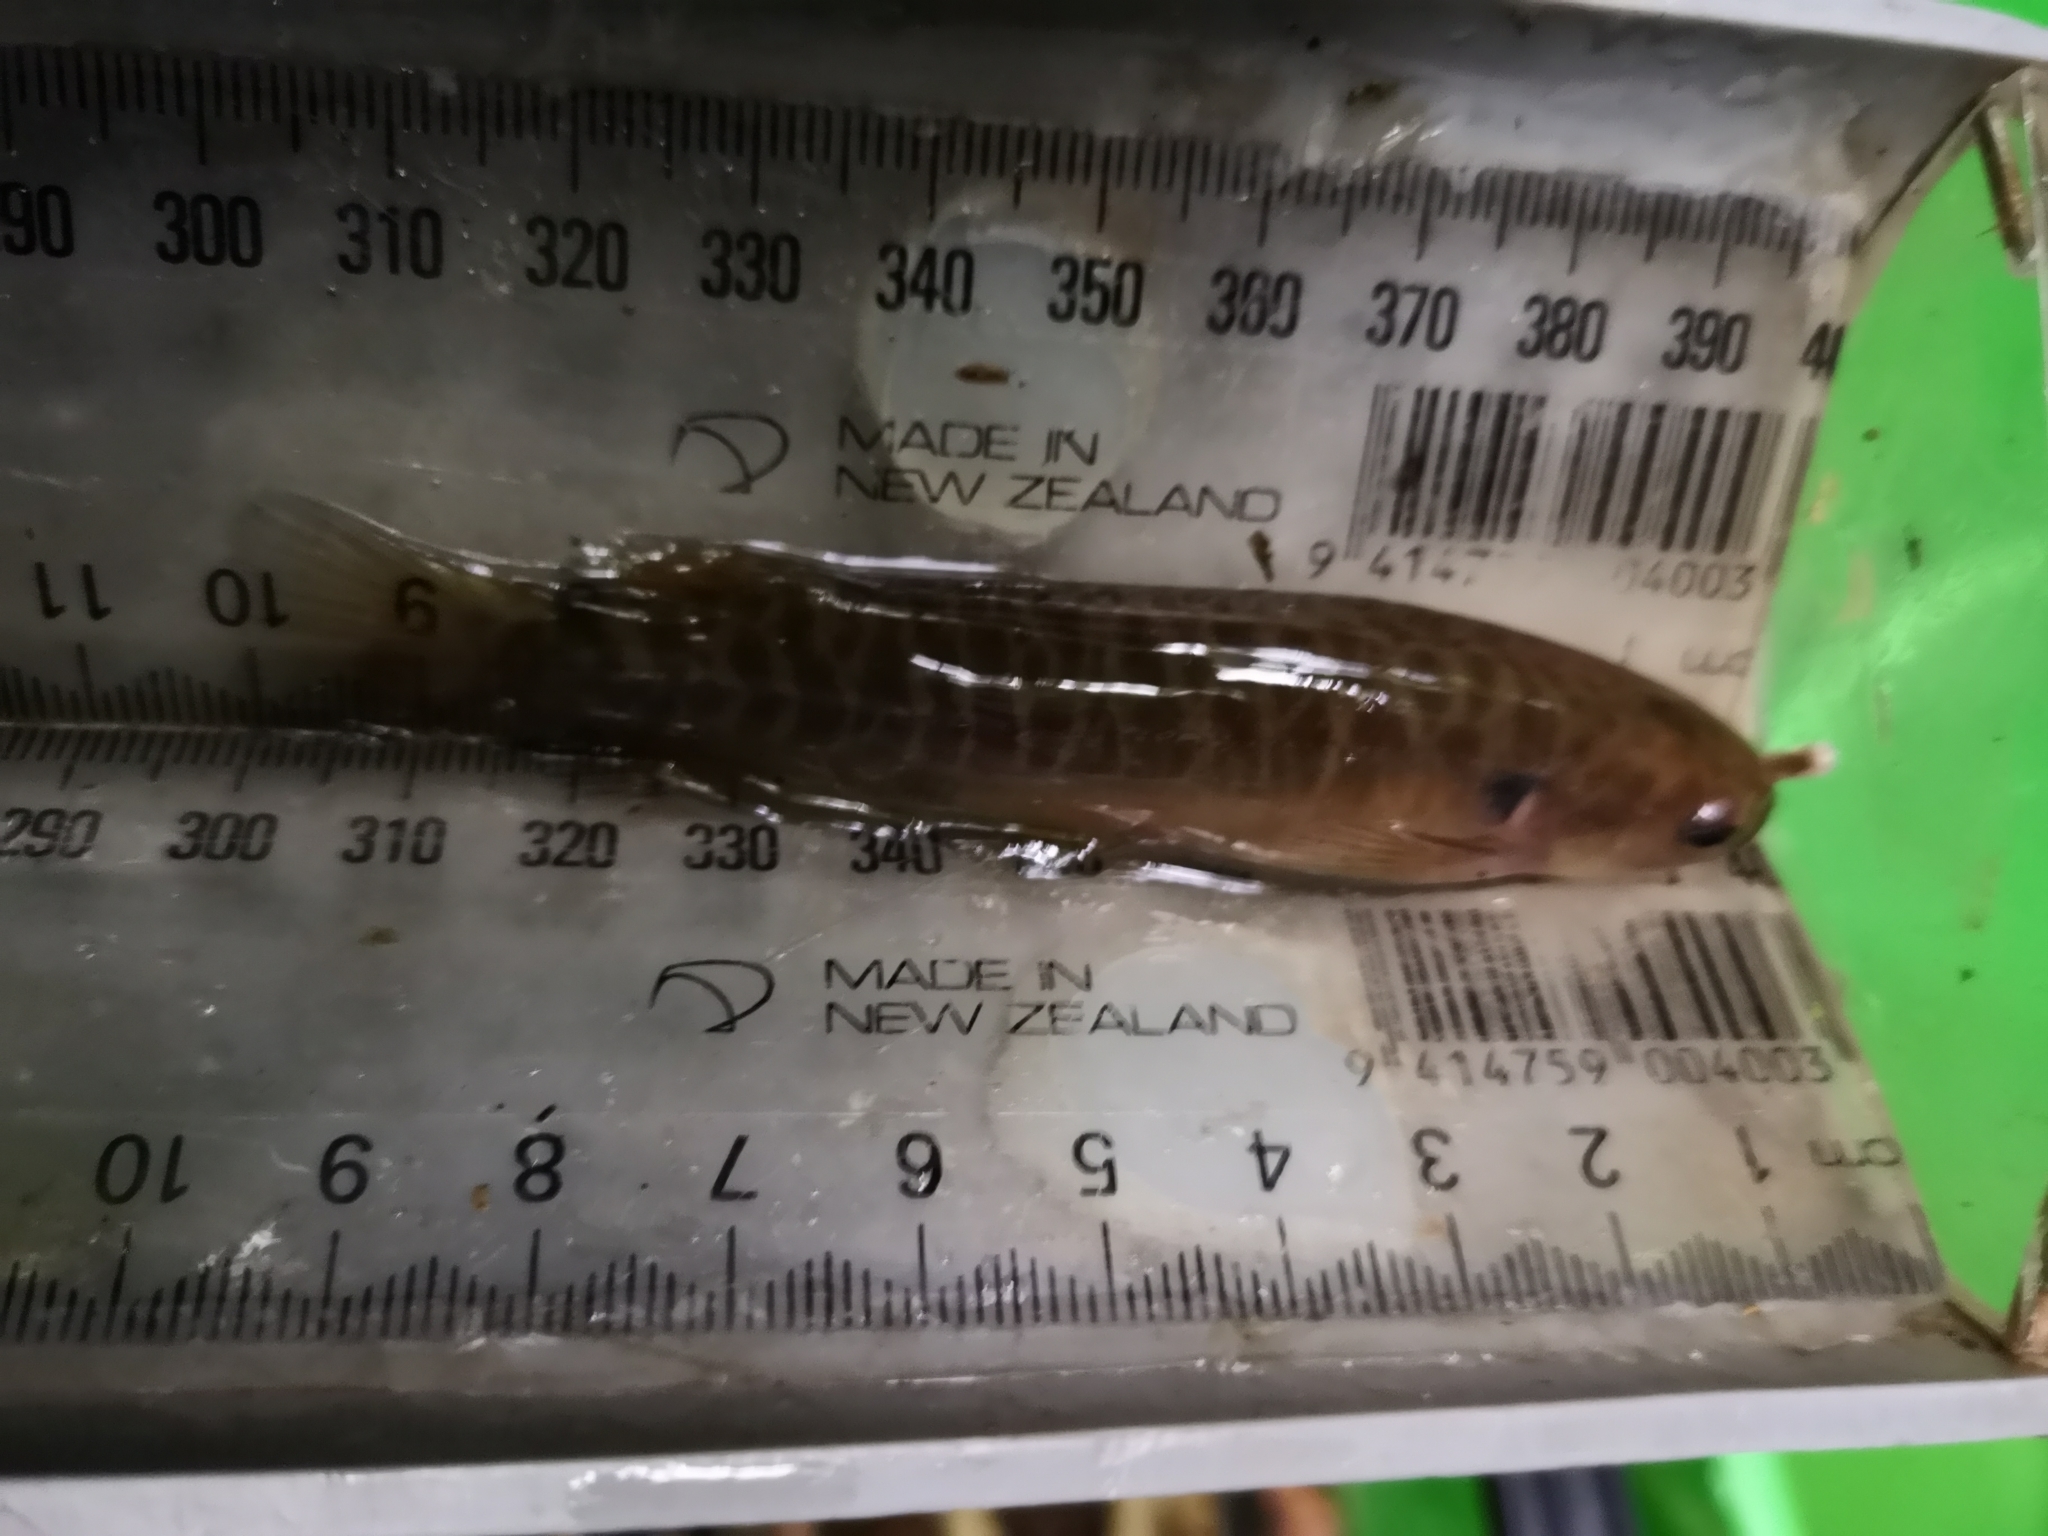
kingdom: Animalia
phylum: Chordata
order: Osmeriformes
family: Galaxiidae
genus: Galaxias
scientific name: Galaxias fasciatus
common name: Banded kokopu
